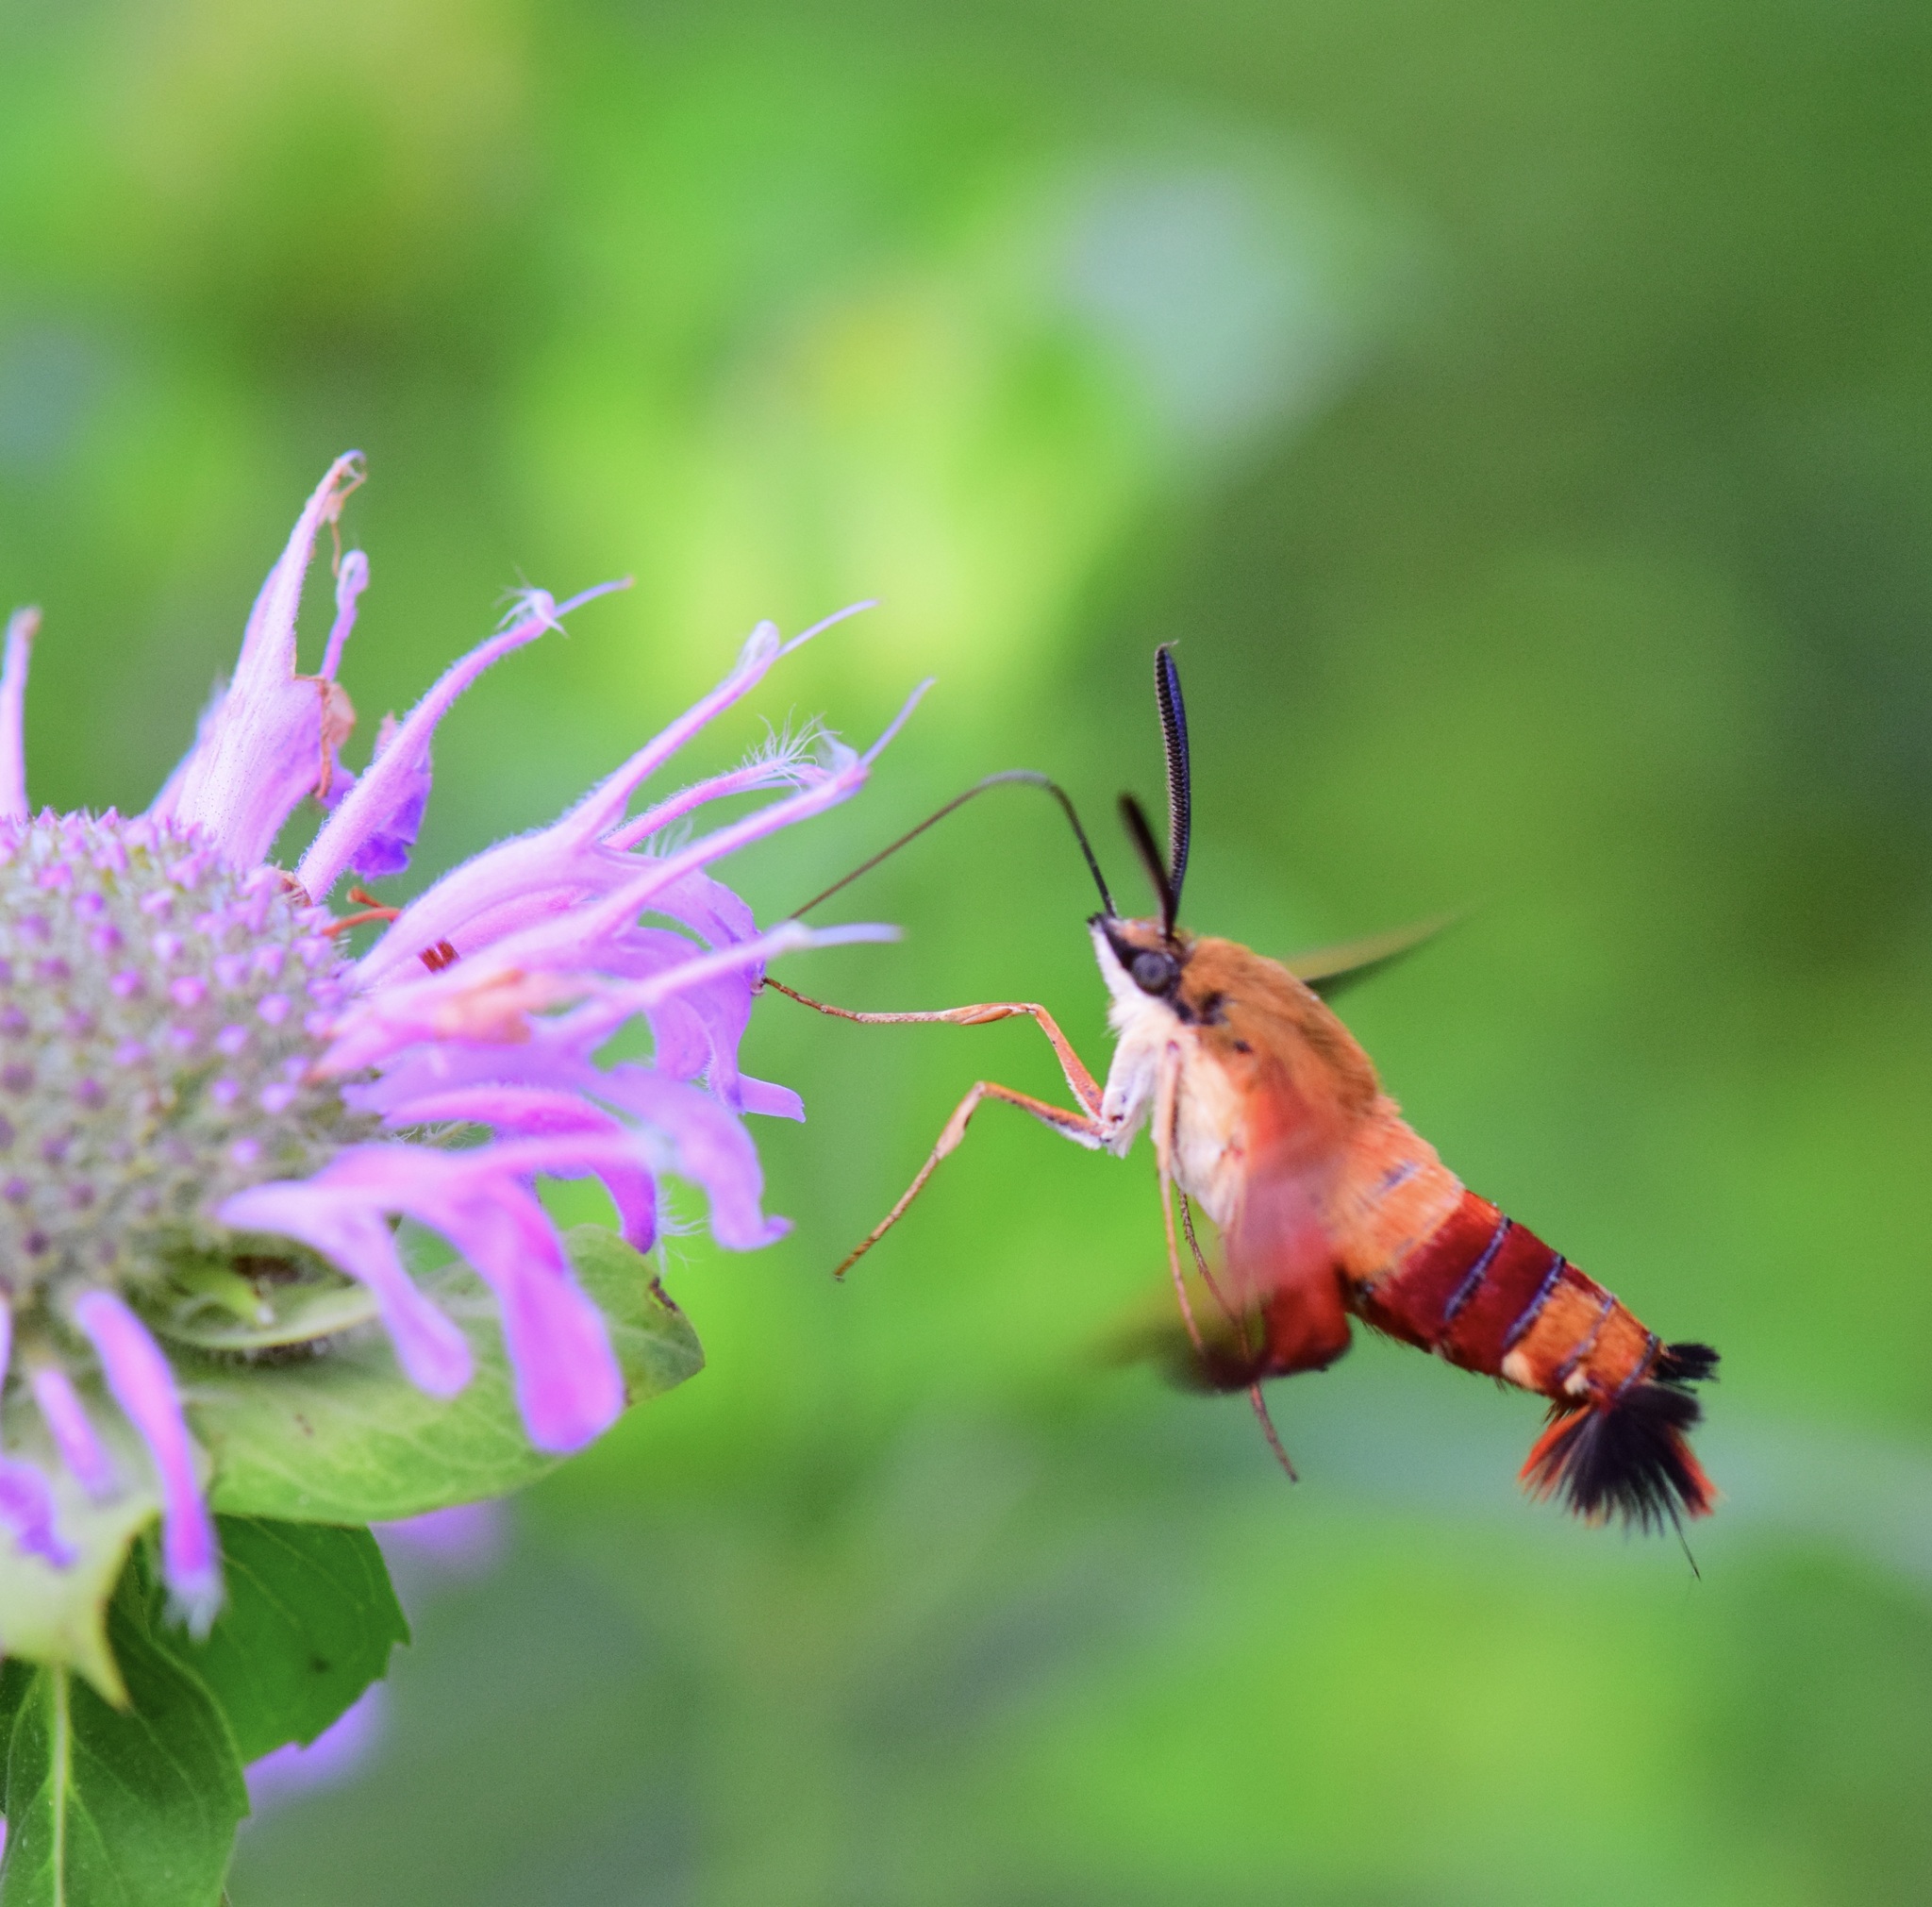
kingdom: Animalia
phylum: Arthropoda
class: Insecta
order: Lepidoptera
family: Sphingidae
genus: Hemaris
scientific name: Hemaris thysbe
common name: Common clear-wing
